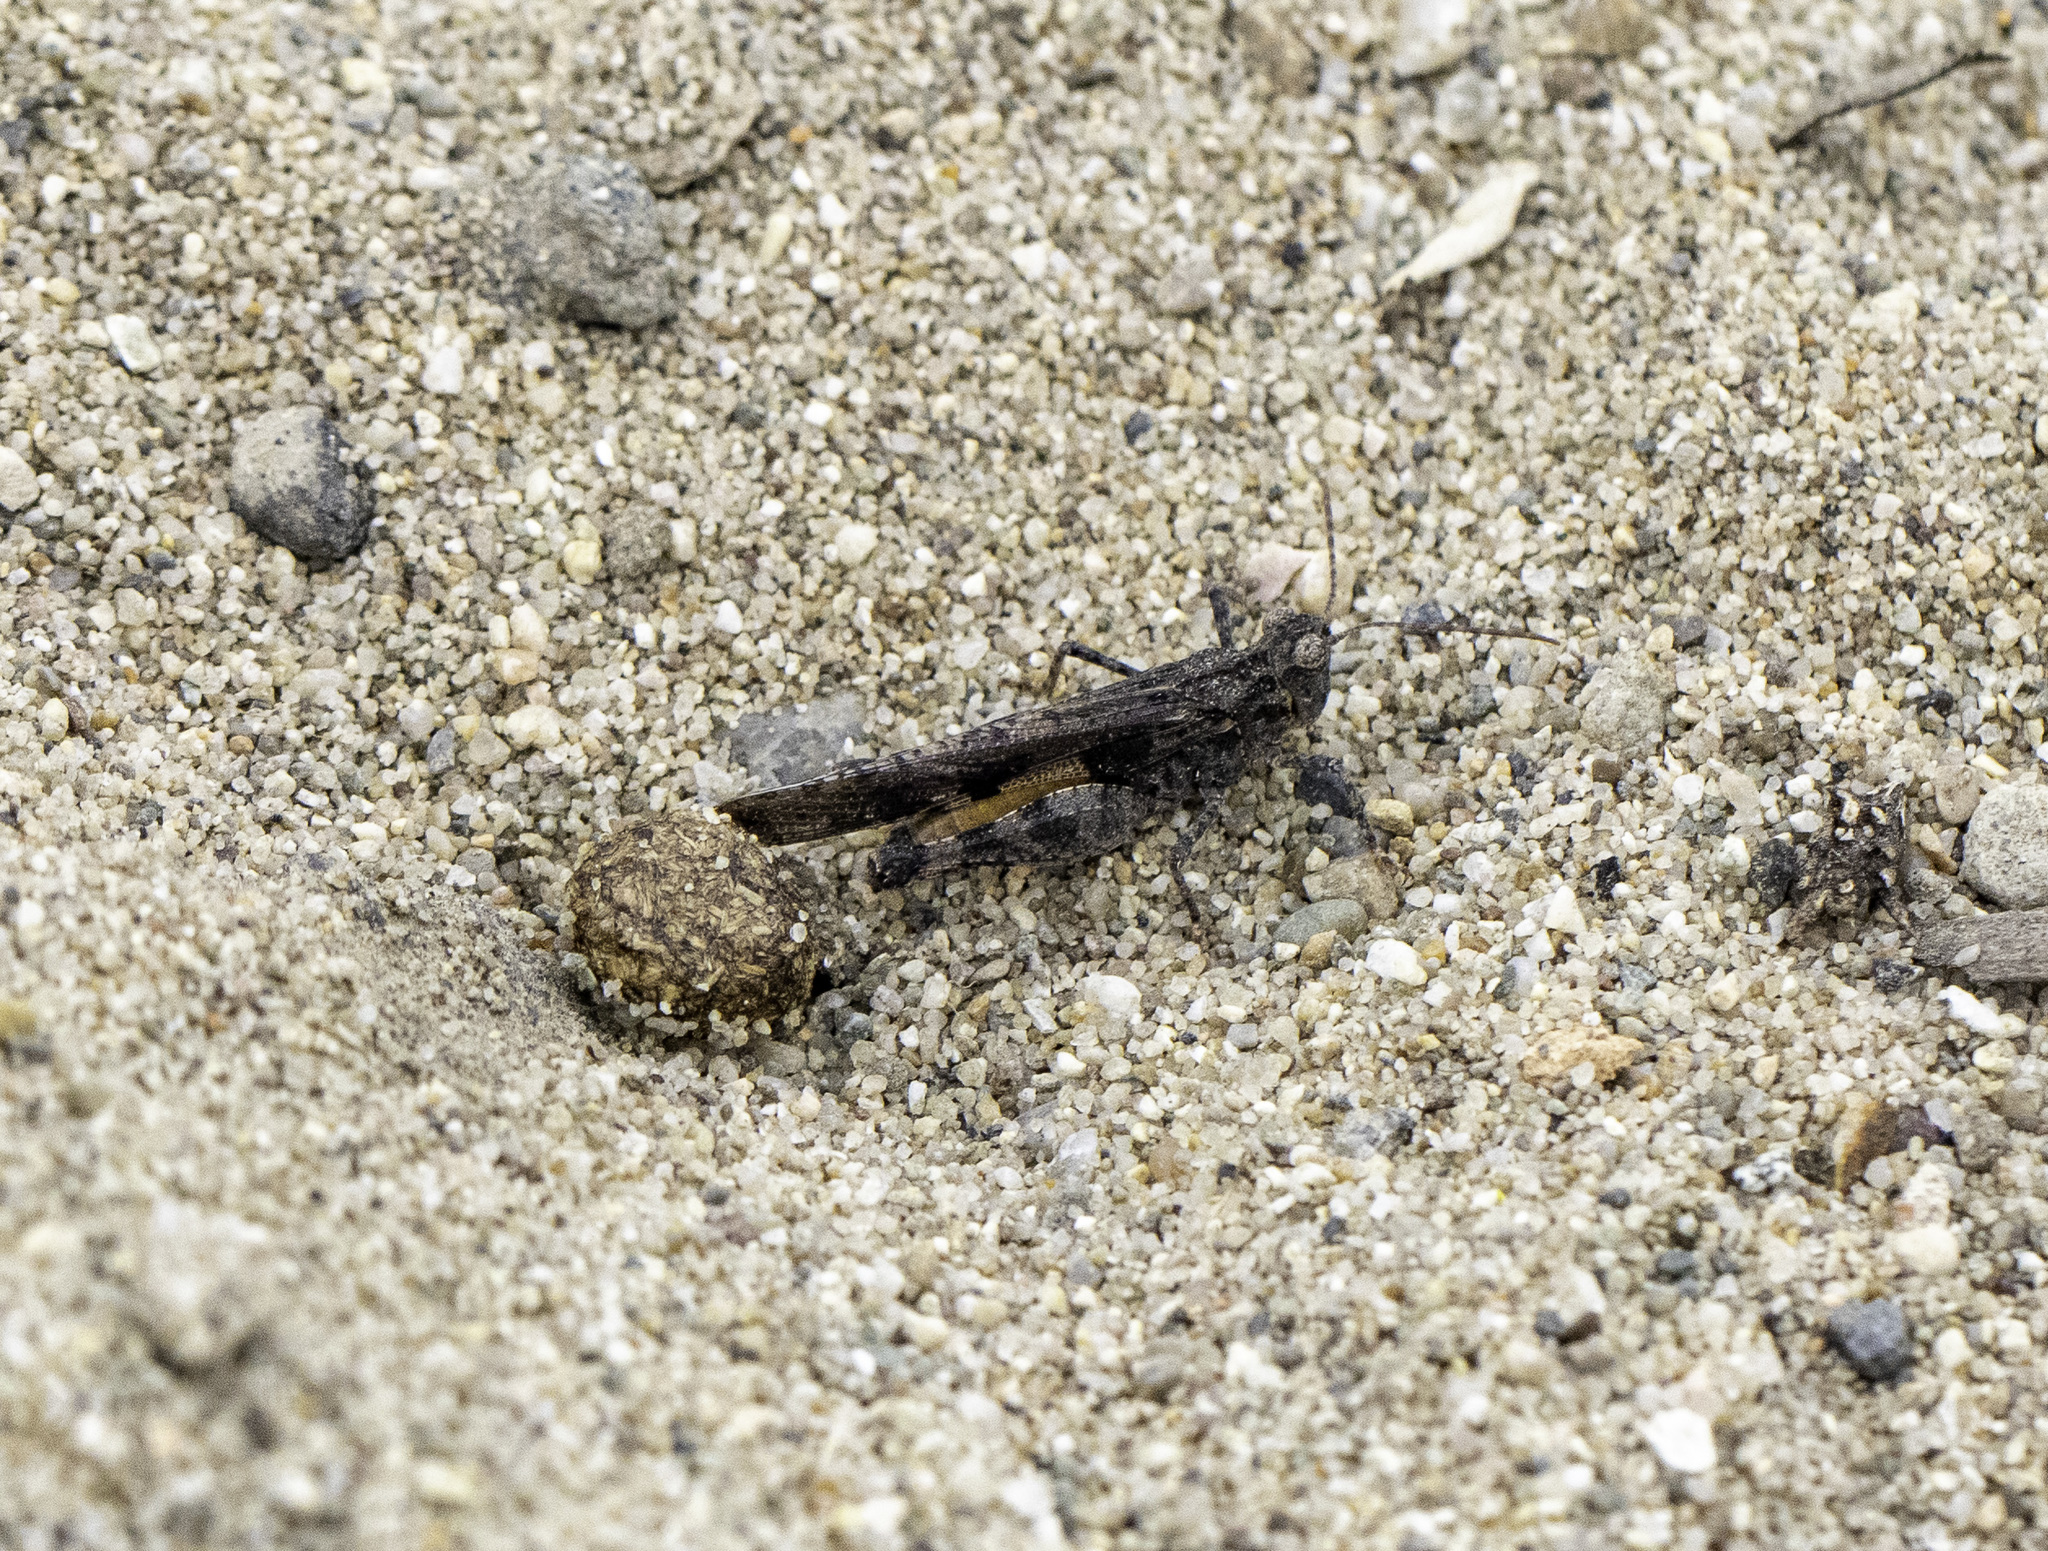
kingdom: Animalia
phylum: Arthropoda
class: Insecta
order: Orthoptera
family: Acrididae
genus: Conozoa
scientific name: Conozoa texana
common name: Cristate grasshopper
